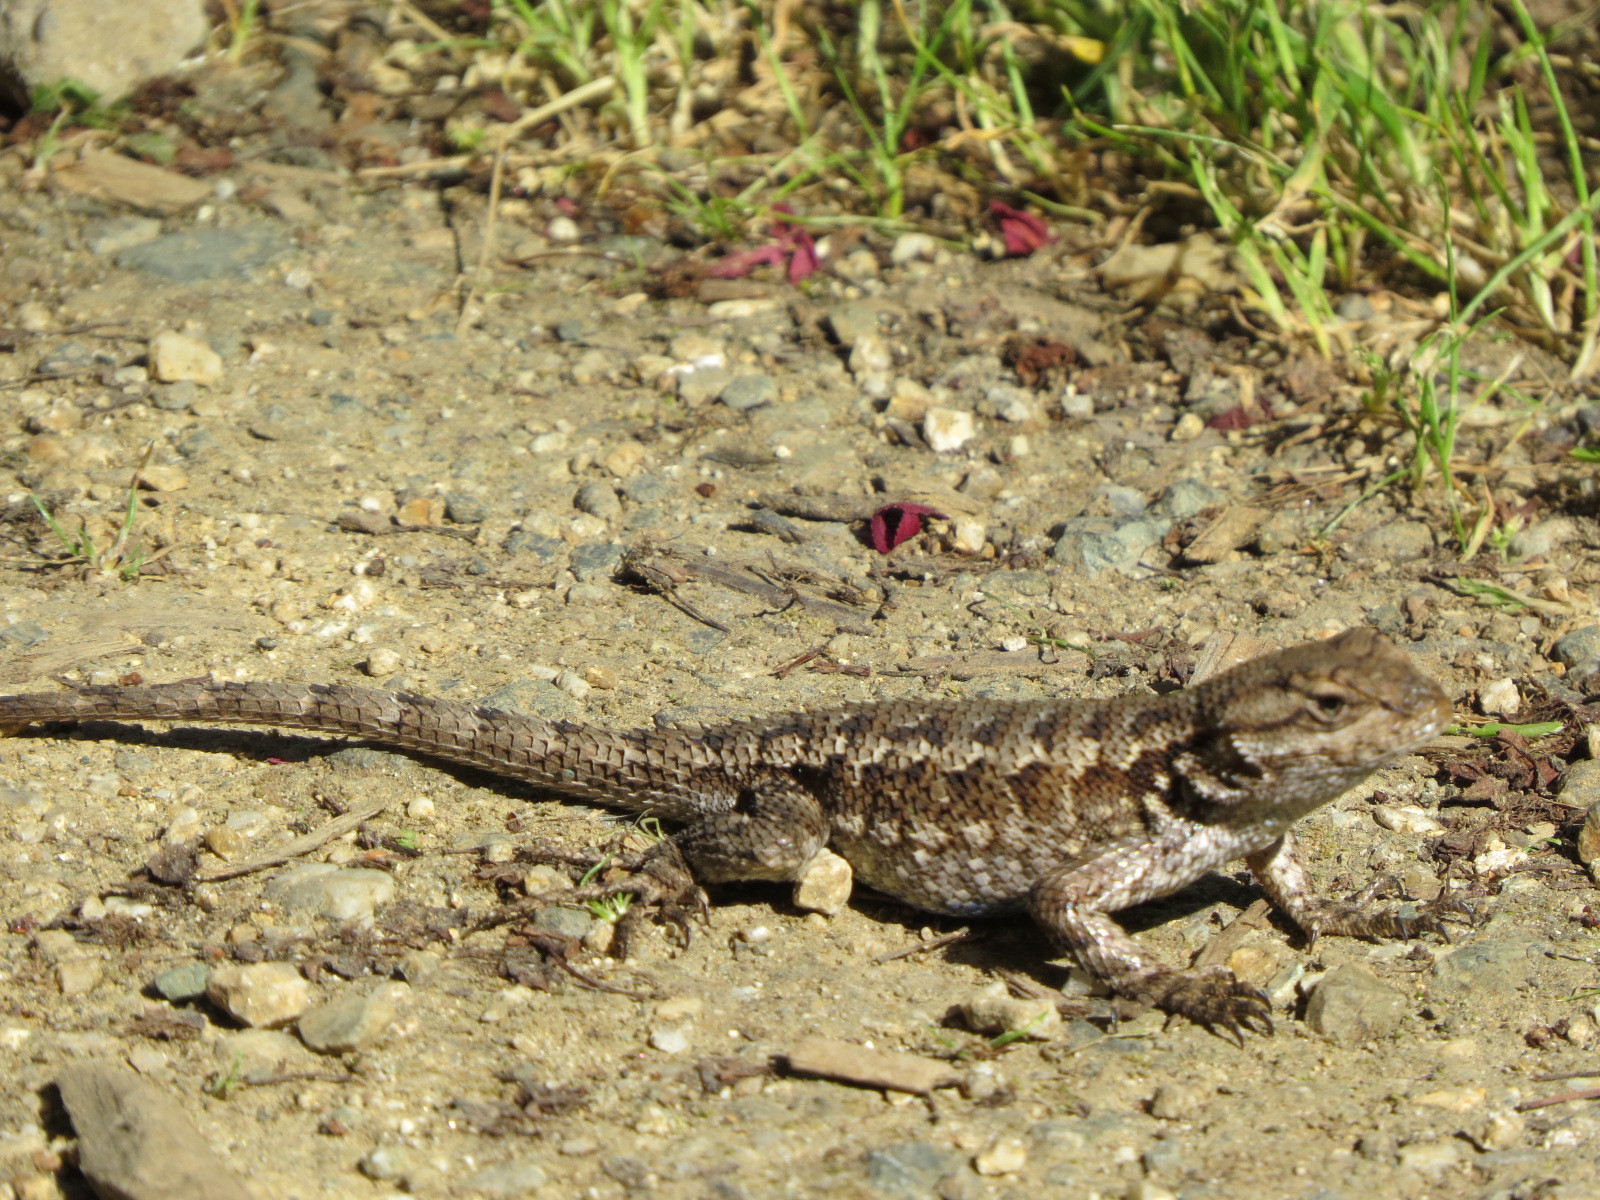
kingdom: Animalia
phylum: Chordata
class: Squamata
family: Phrynosomatidae
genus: Sceloporus
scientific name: Sceloporus occidentalis
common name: Western fence lizard
